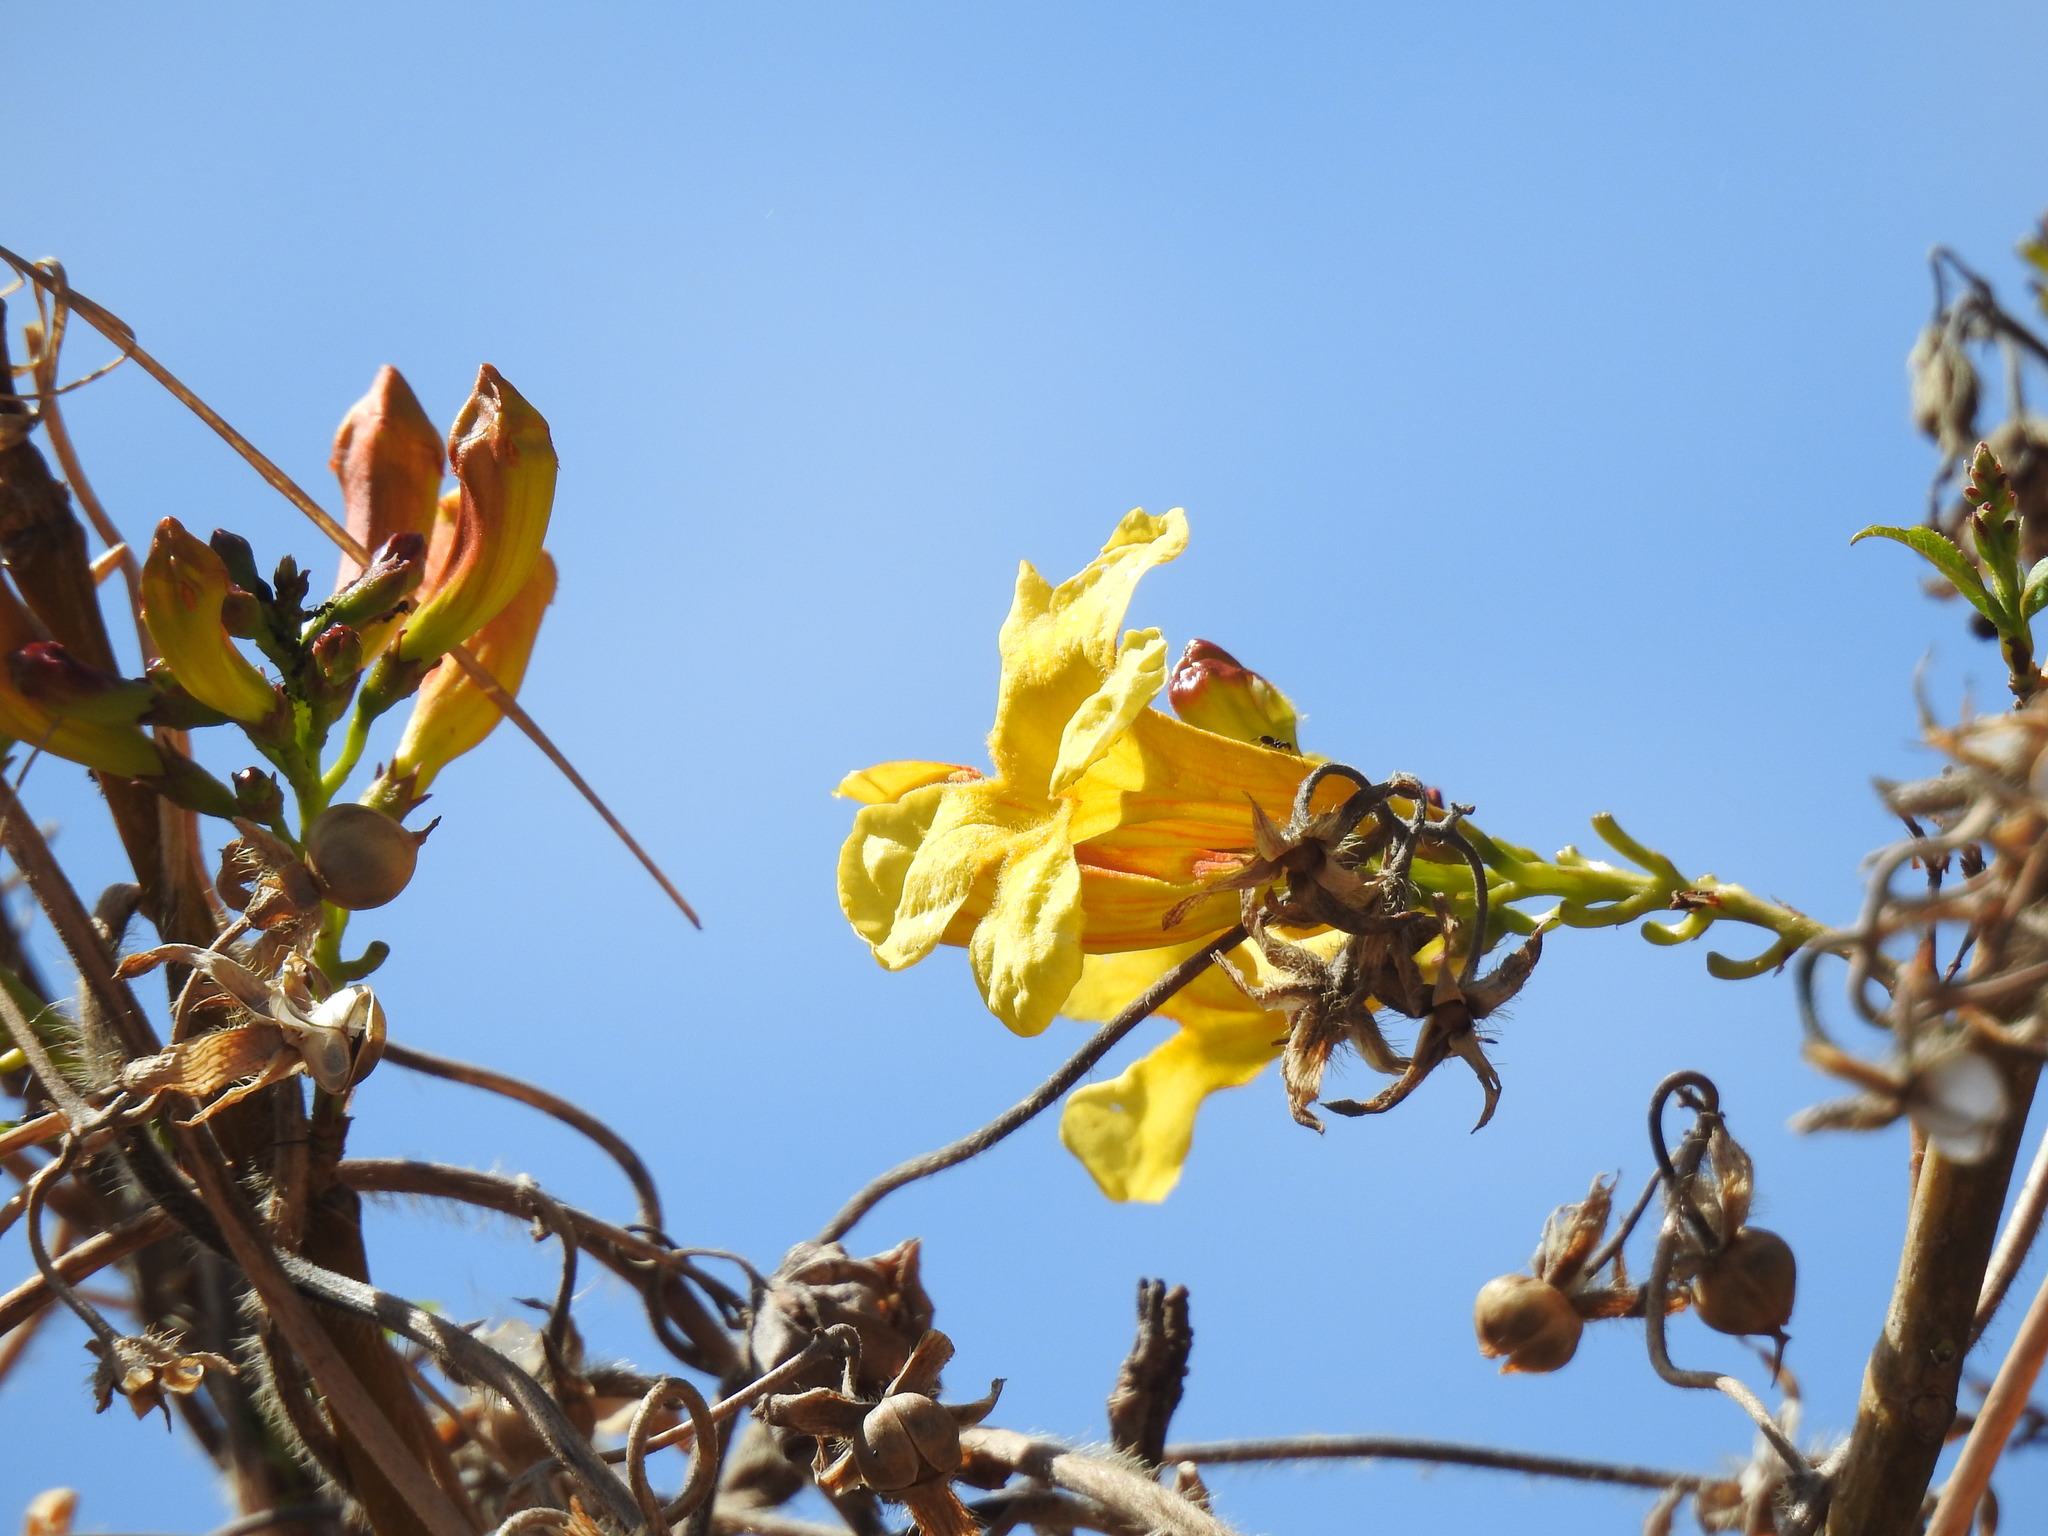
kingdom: Plantae
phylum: Tracheophyta
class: Magnoliopsida
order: Lamiales
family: Bignoniaceae
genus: Tecoma
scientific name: Tecoma stans
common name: Yellow trumpetbush
